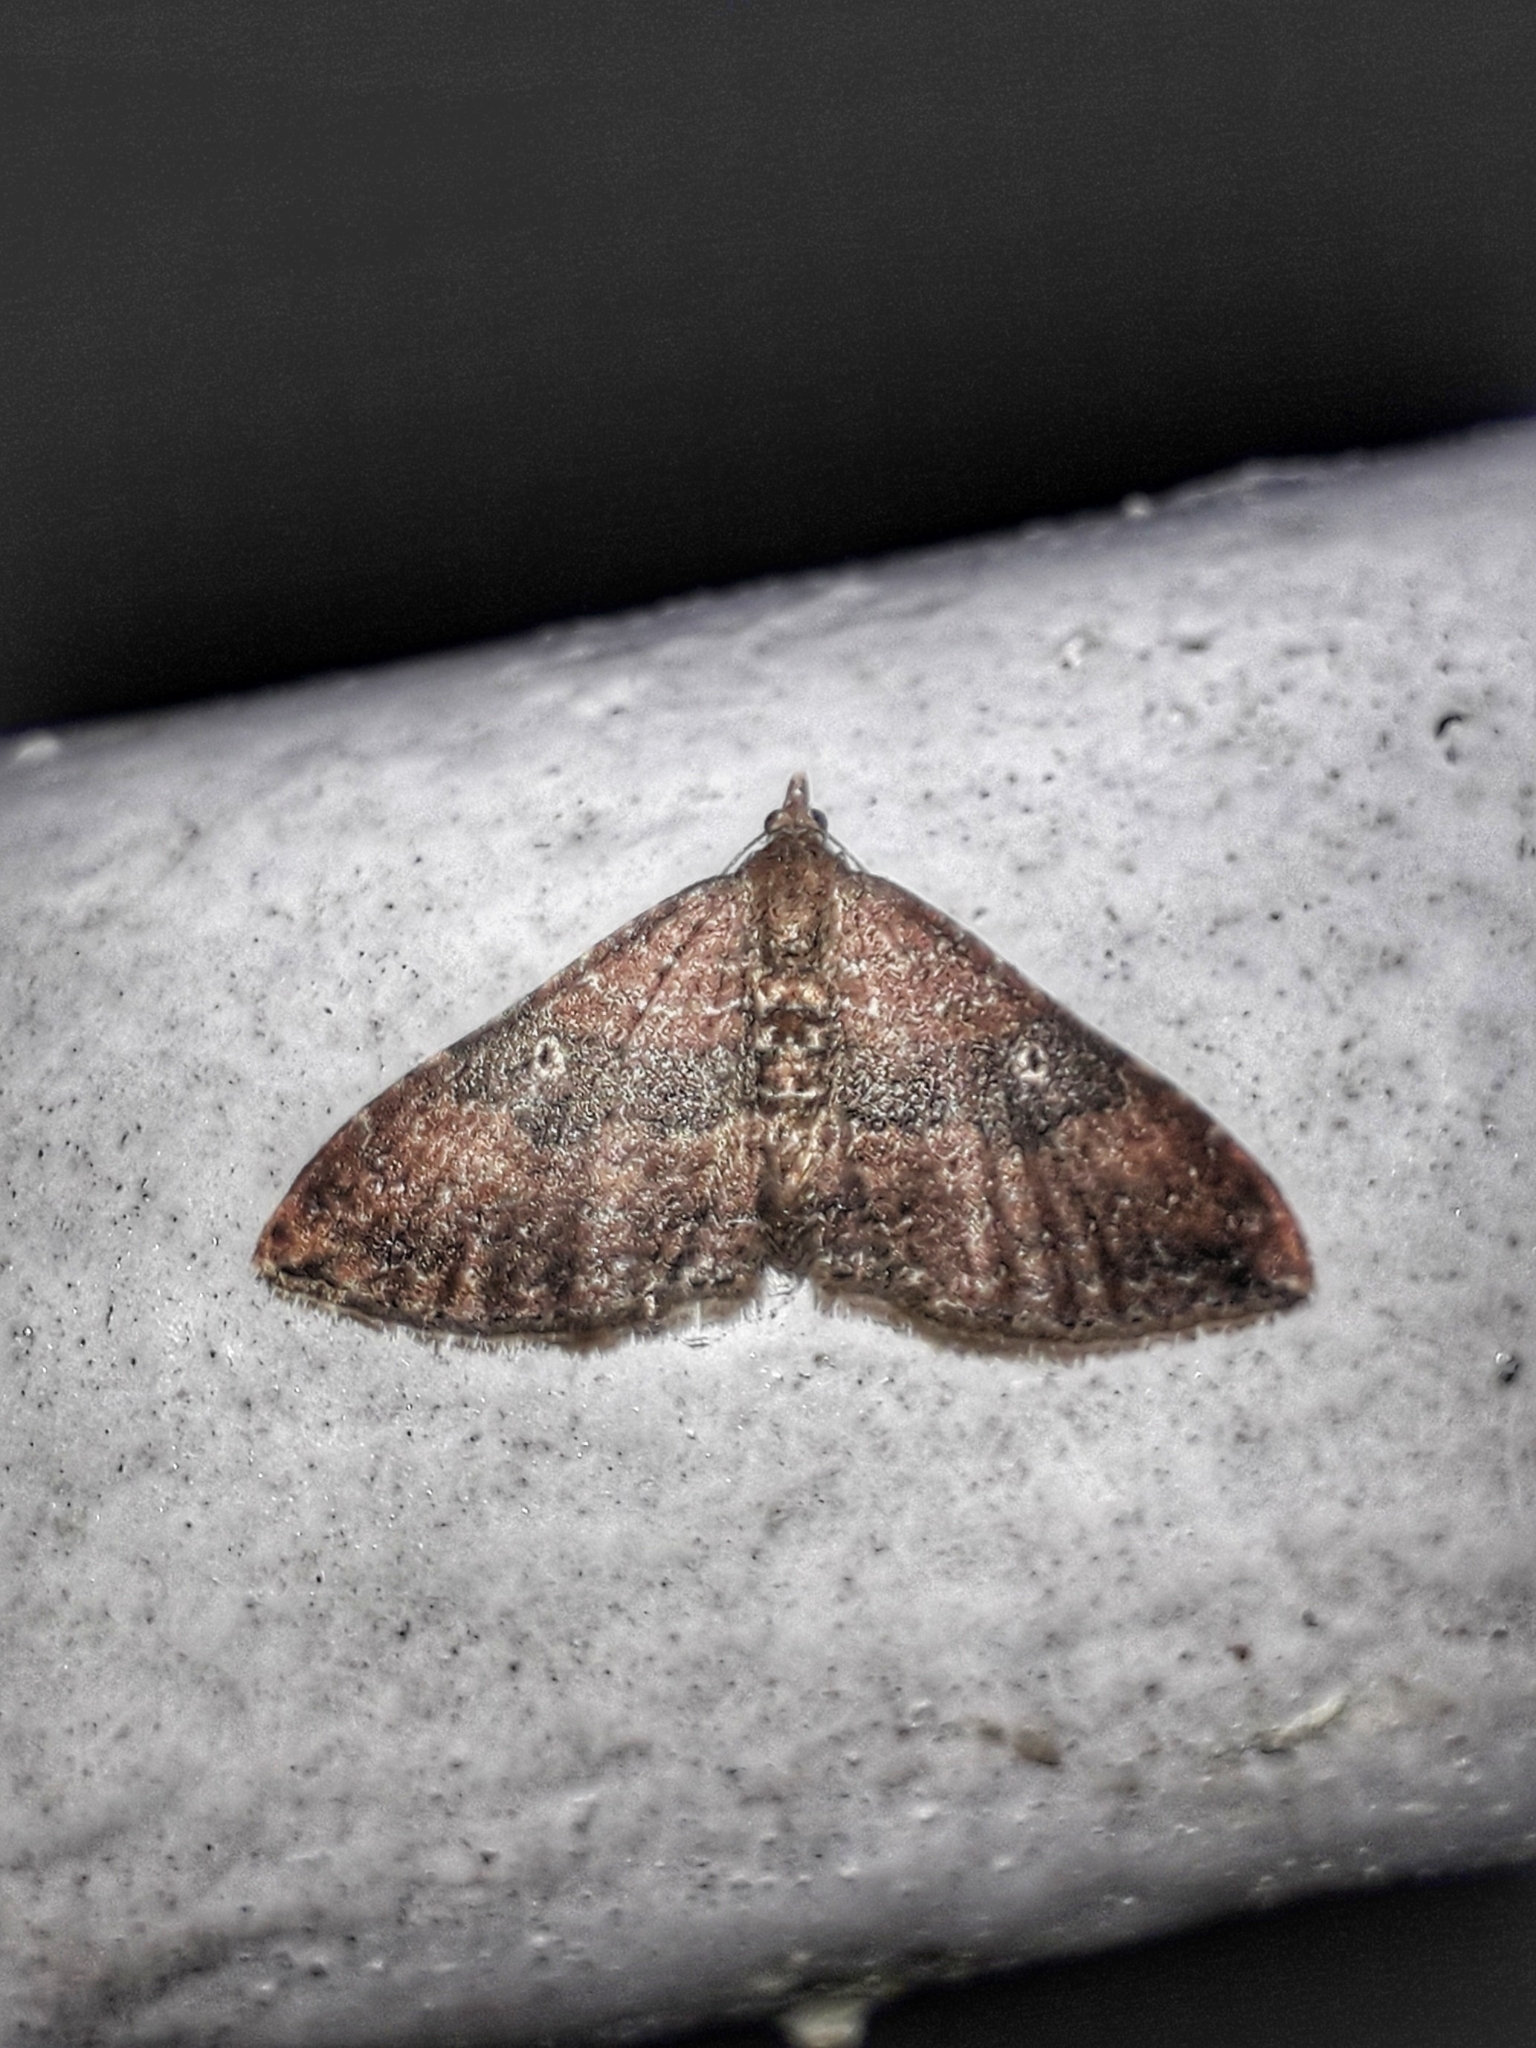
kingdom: Animalia
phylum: Arthropoda
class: Insecta
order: Lepidoptera
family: Geometridae
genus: Orthonama
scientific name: Orthonama obstipata
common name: The gem
